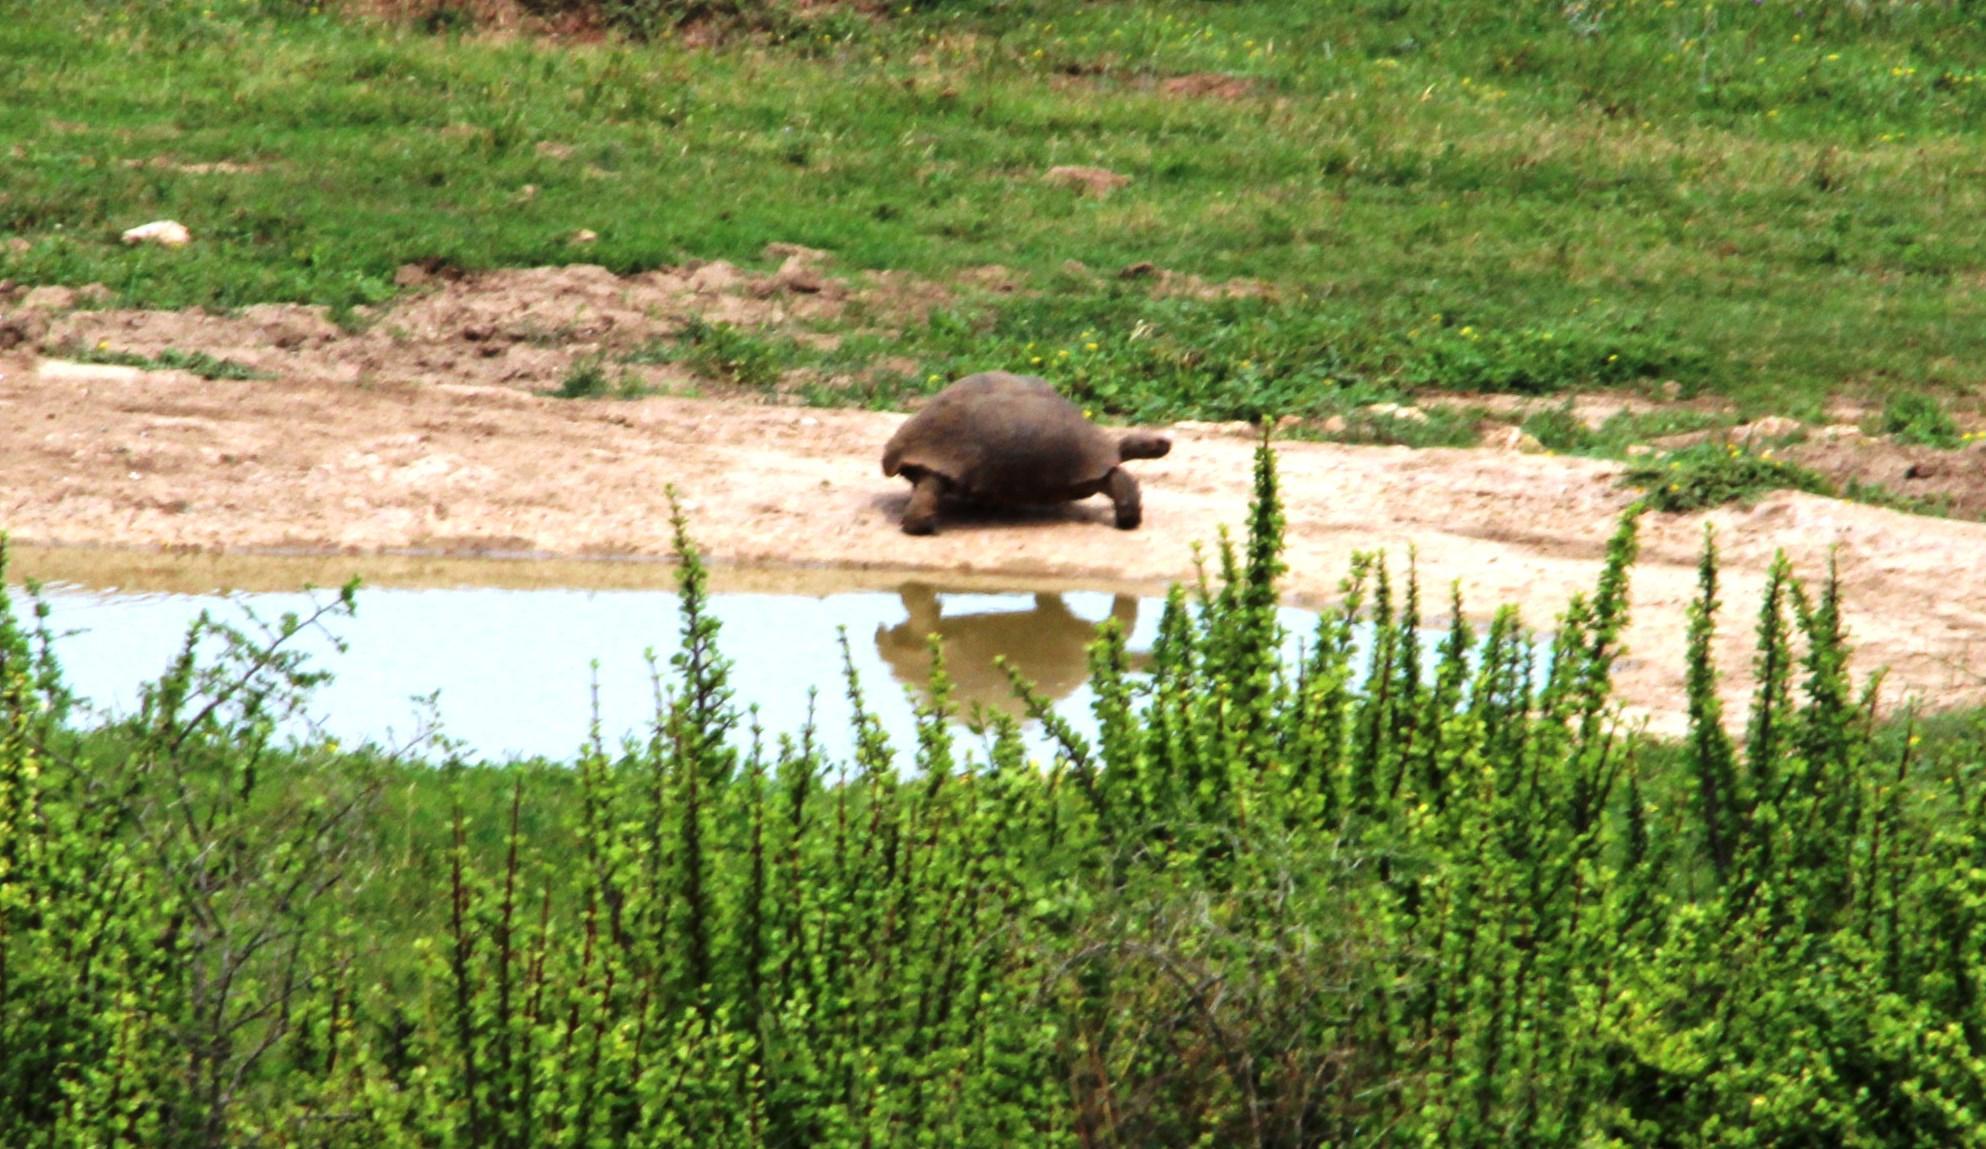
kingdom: Animalia
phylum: Chordata
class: Testudines
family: Testudinidae
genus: Stigmochelys
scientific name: Stigmochelys pardalis
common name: Leopard tortoise
